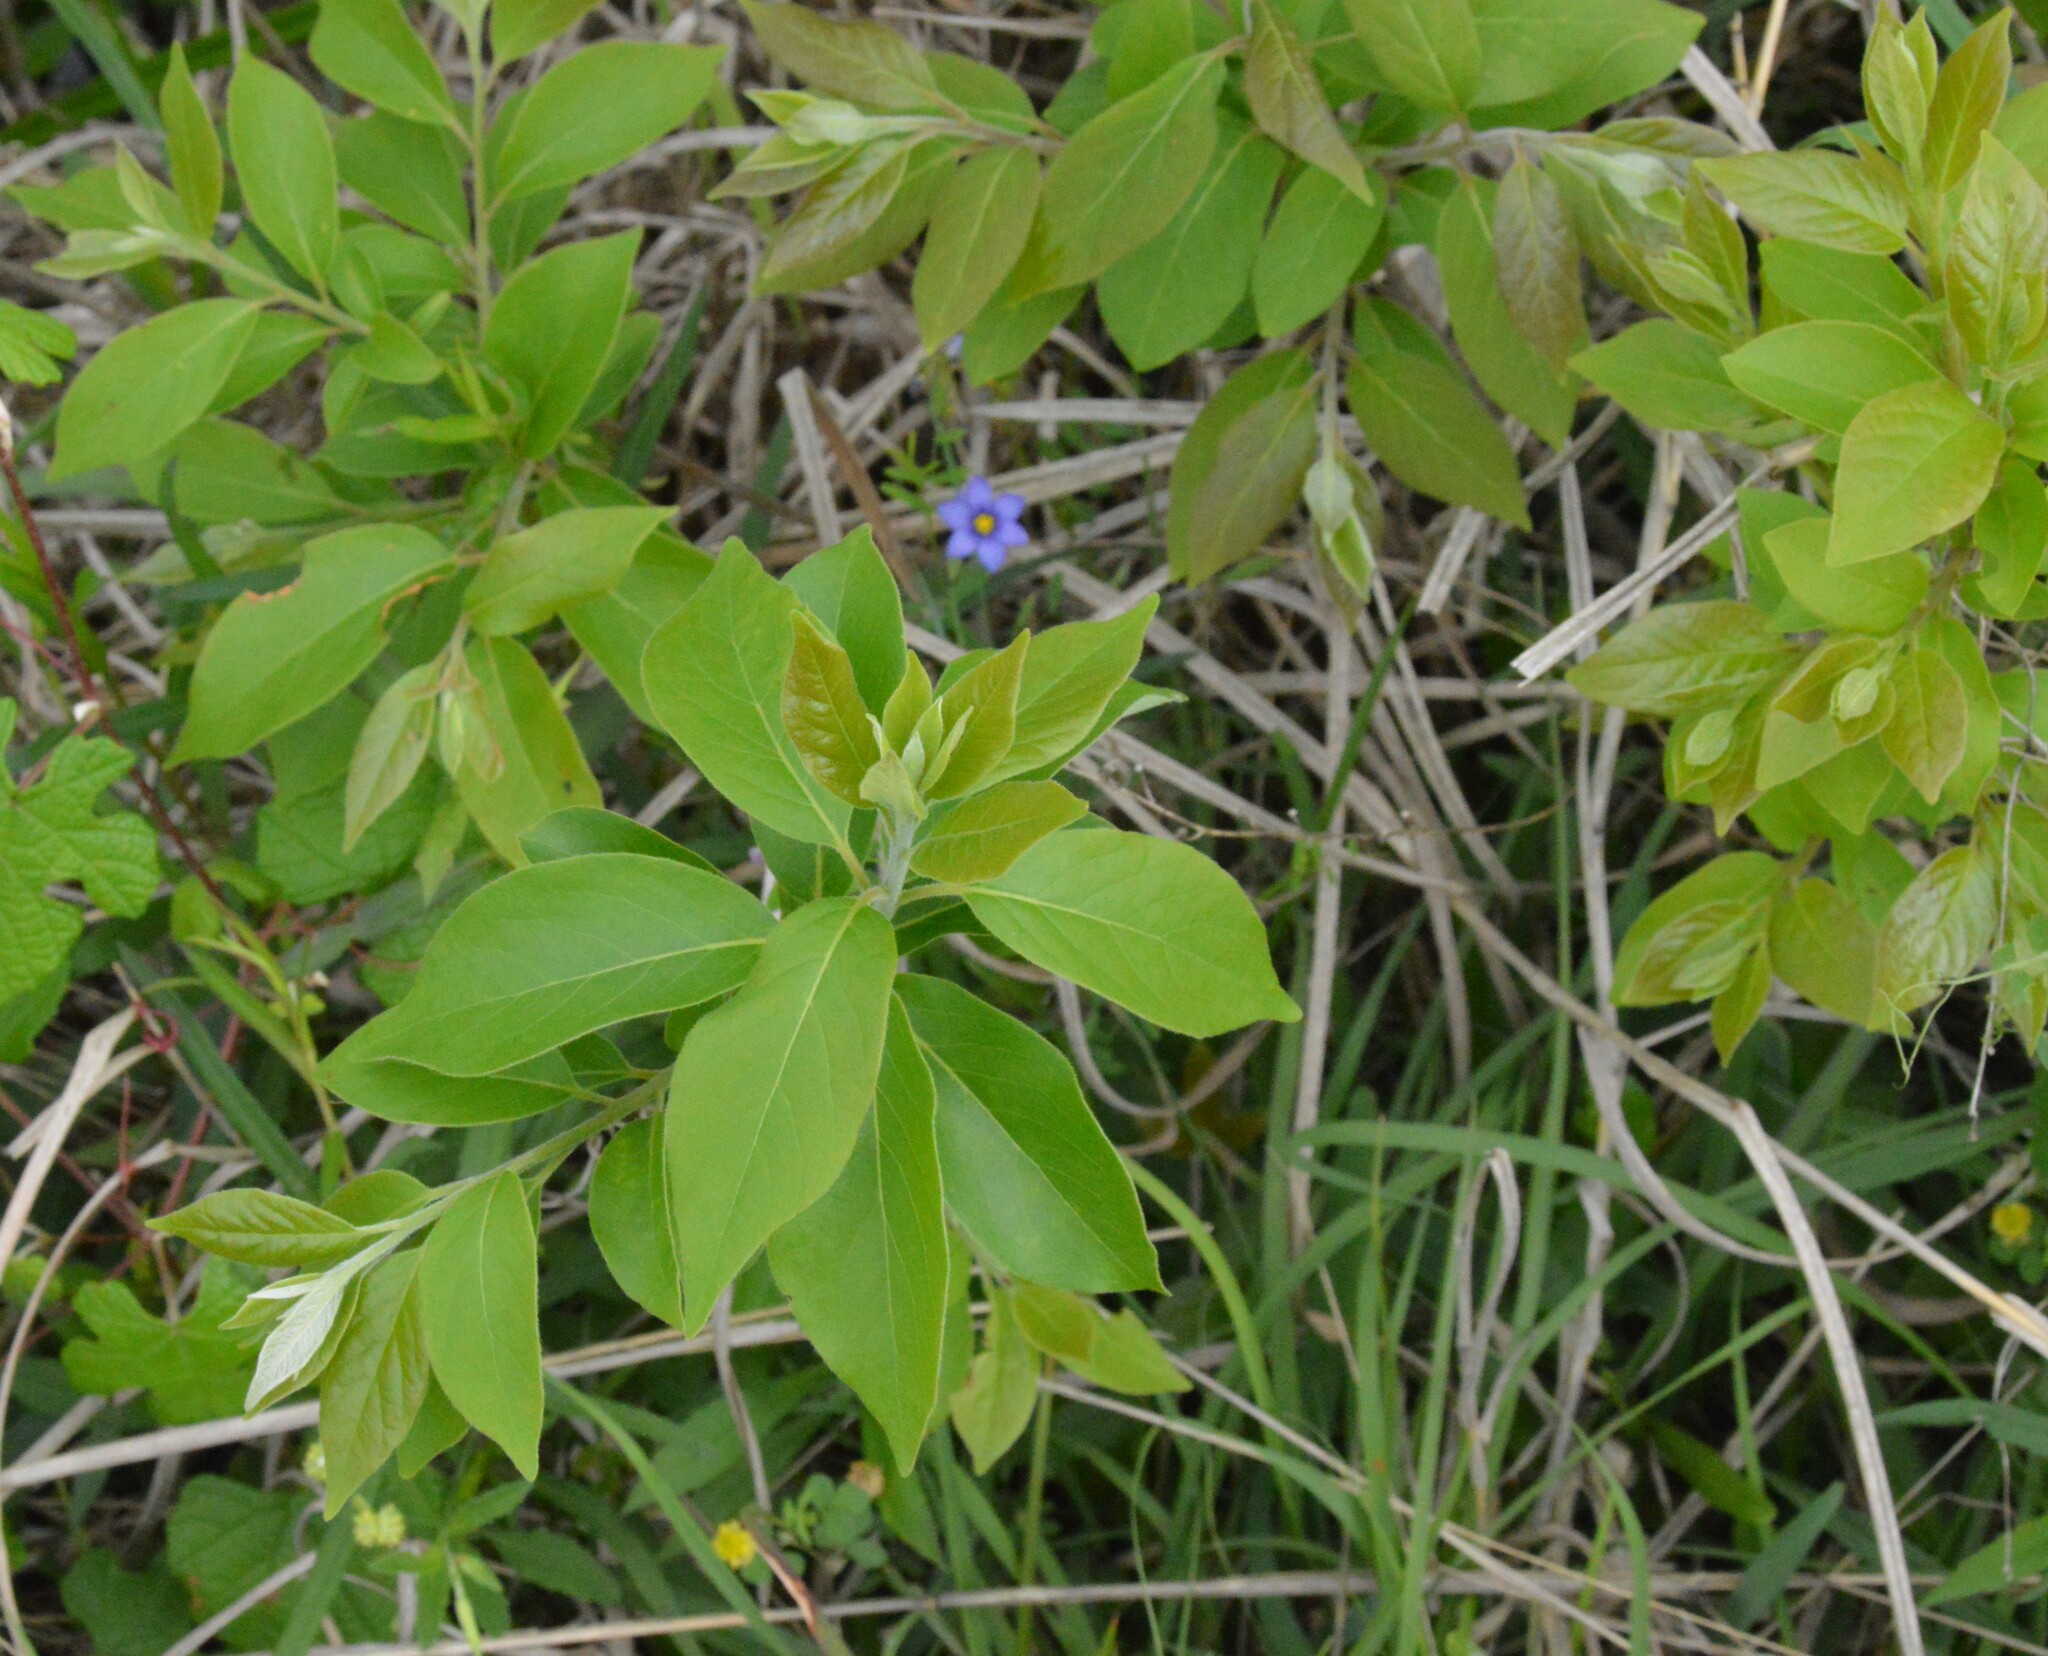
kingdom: Plantae
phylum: Tracheophyta
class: Magnoliopsida
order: Ericales
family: Ebenaceae
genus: Diospyros
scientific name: Diospyros virginiana
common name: Persimmon
